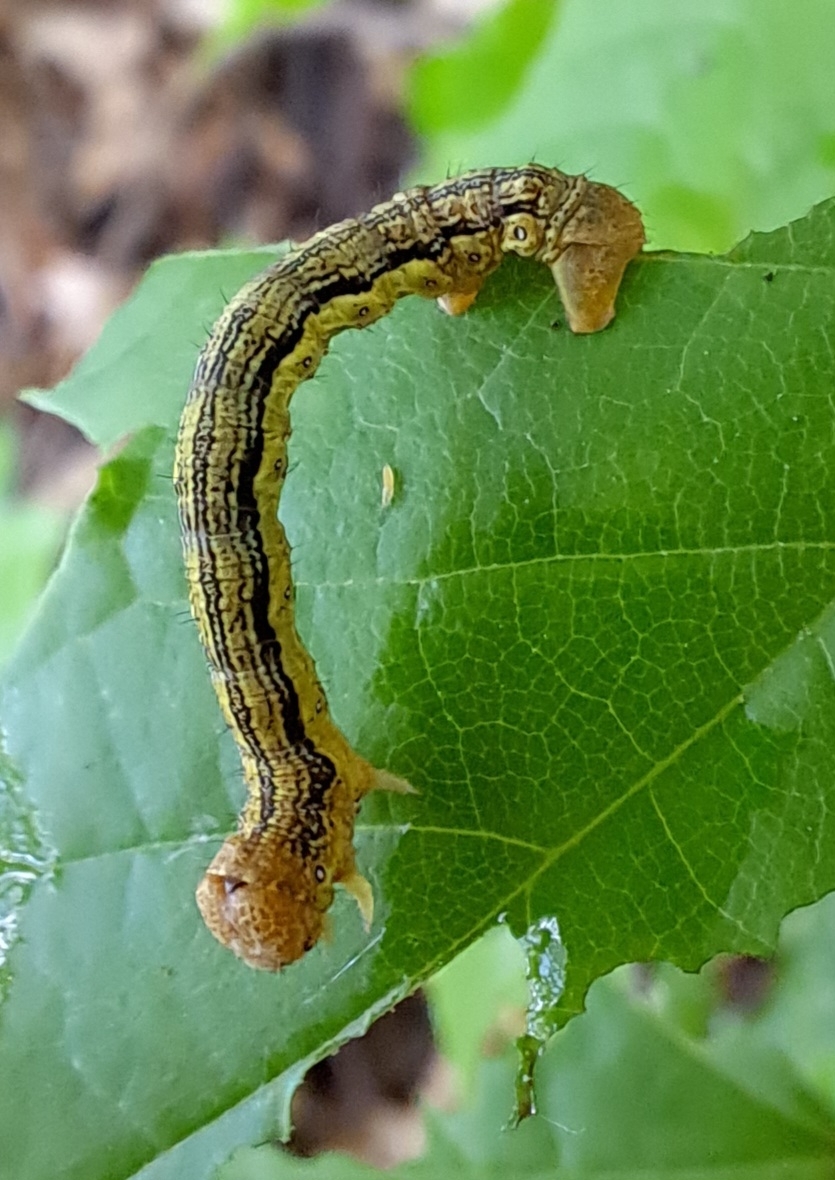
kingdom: Animalia
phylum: Arthropoda
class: Insecta
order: Lepidoptera
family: Geometridae
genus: Erannis
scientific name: Erannis defoliaria
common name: Mottled umber
